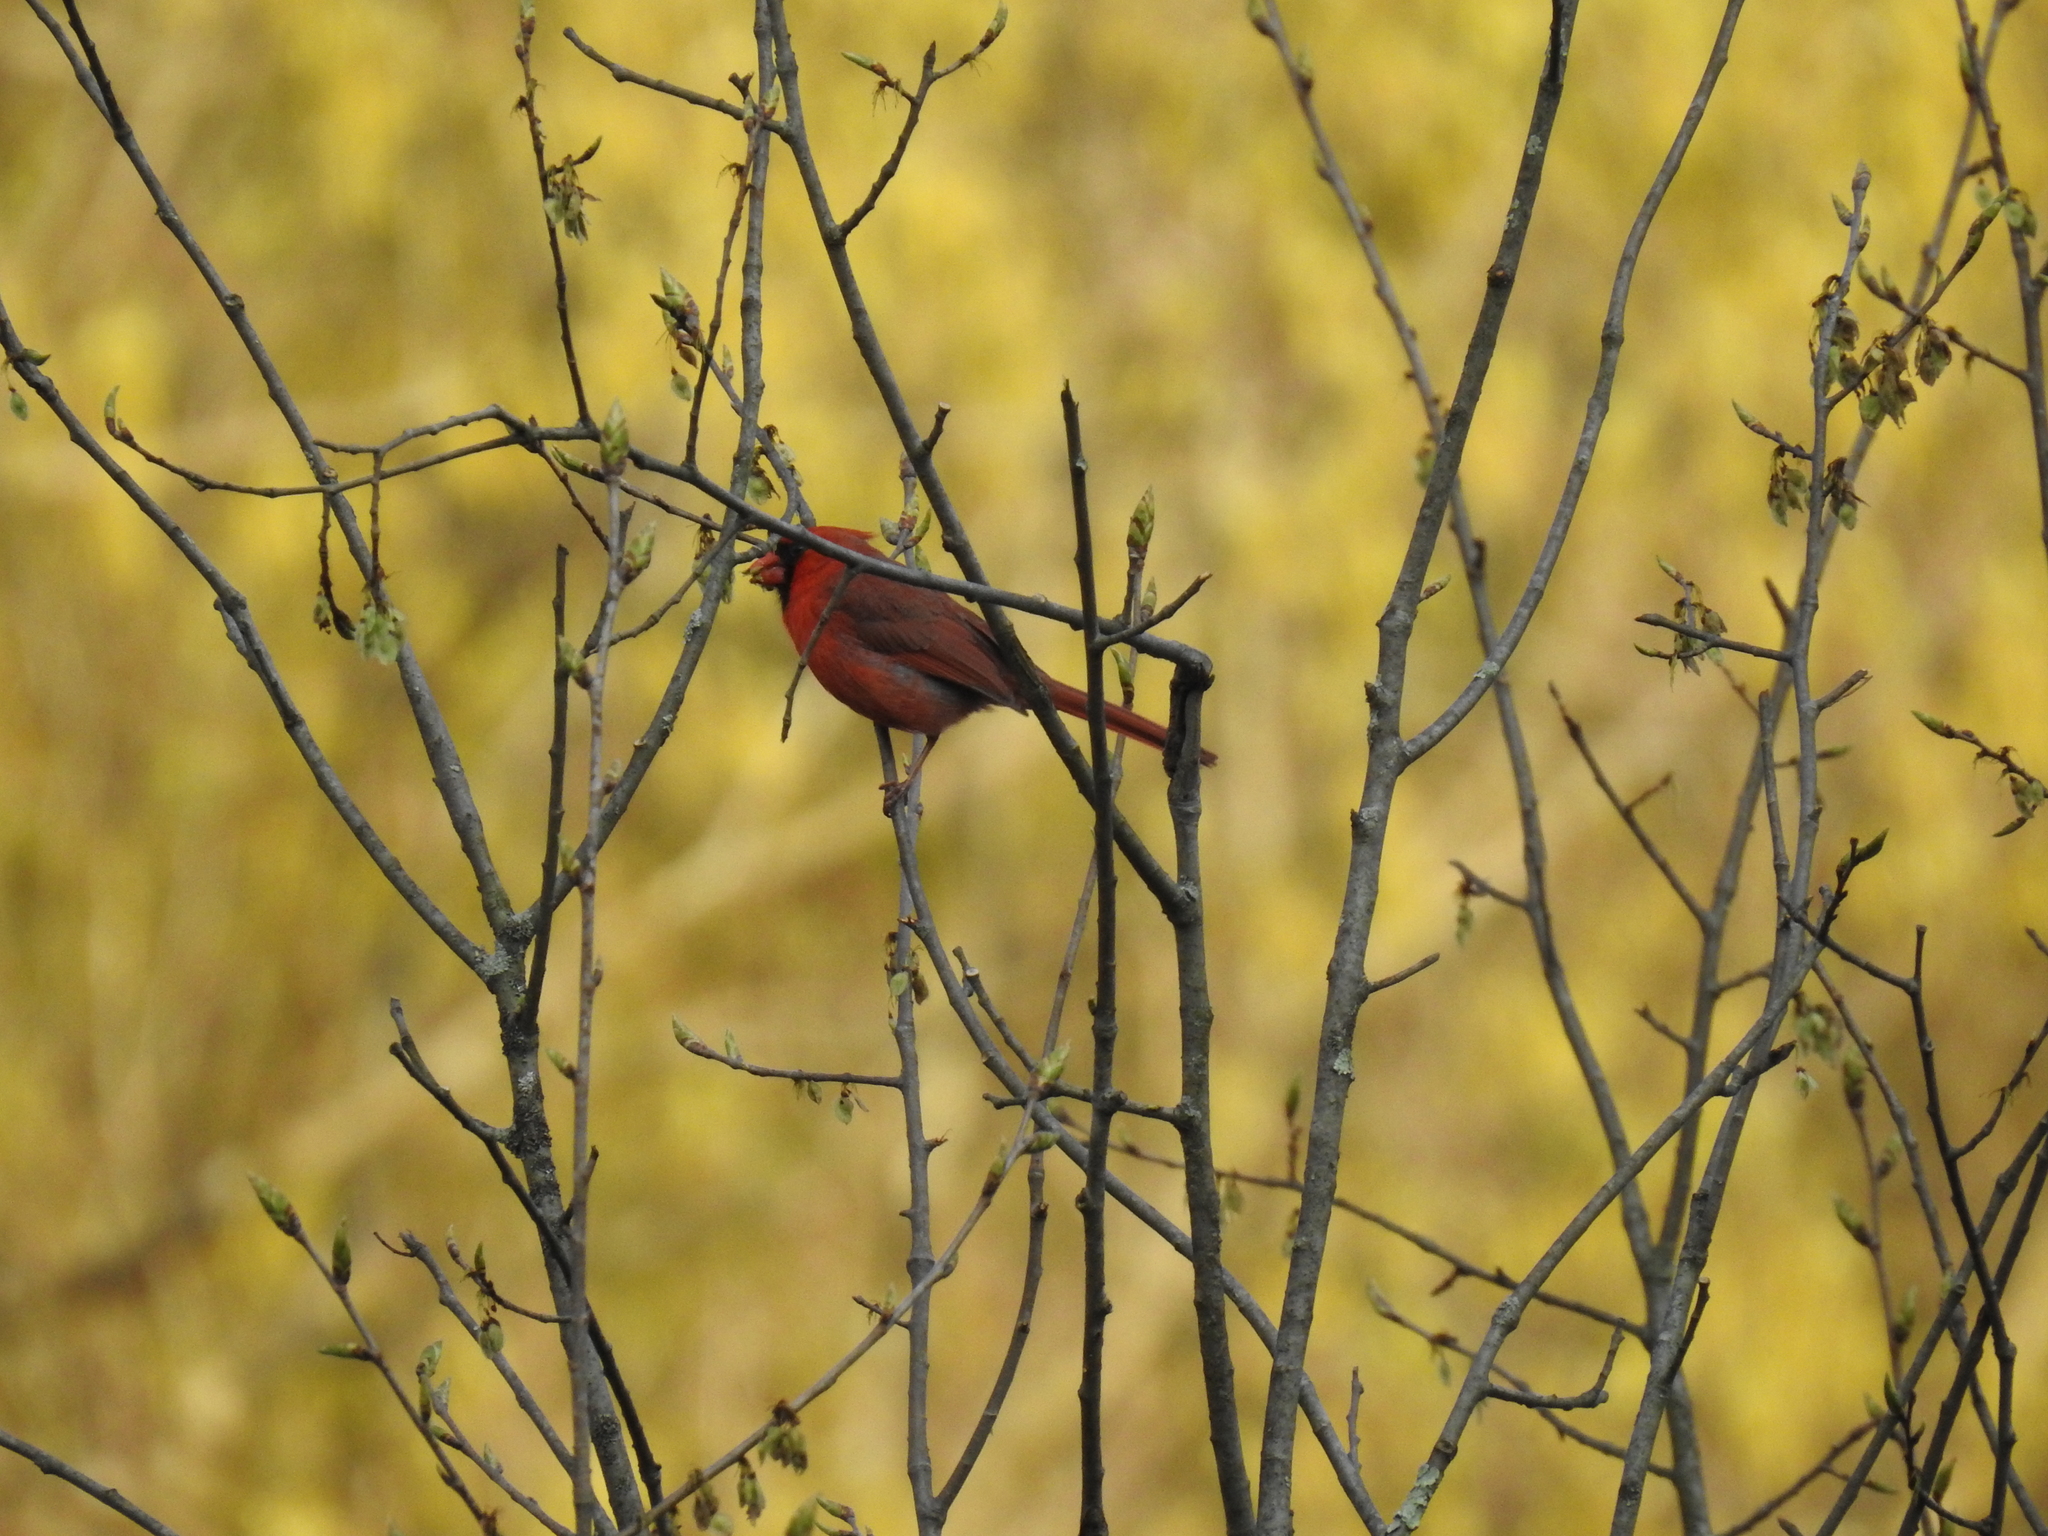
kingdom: Animalia
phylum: Chordata
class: Aves
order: Passeriformes
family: Cardinalidae
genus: Cardinalis
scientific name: Cardinalis cardinalis
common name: Northern cardinal
